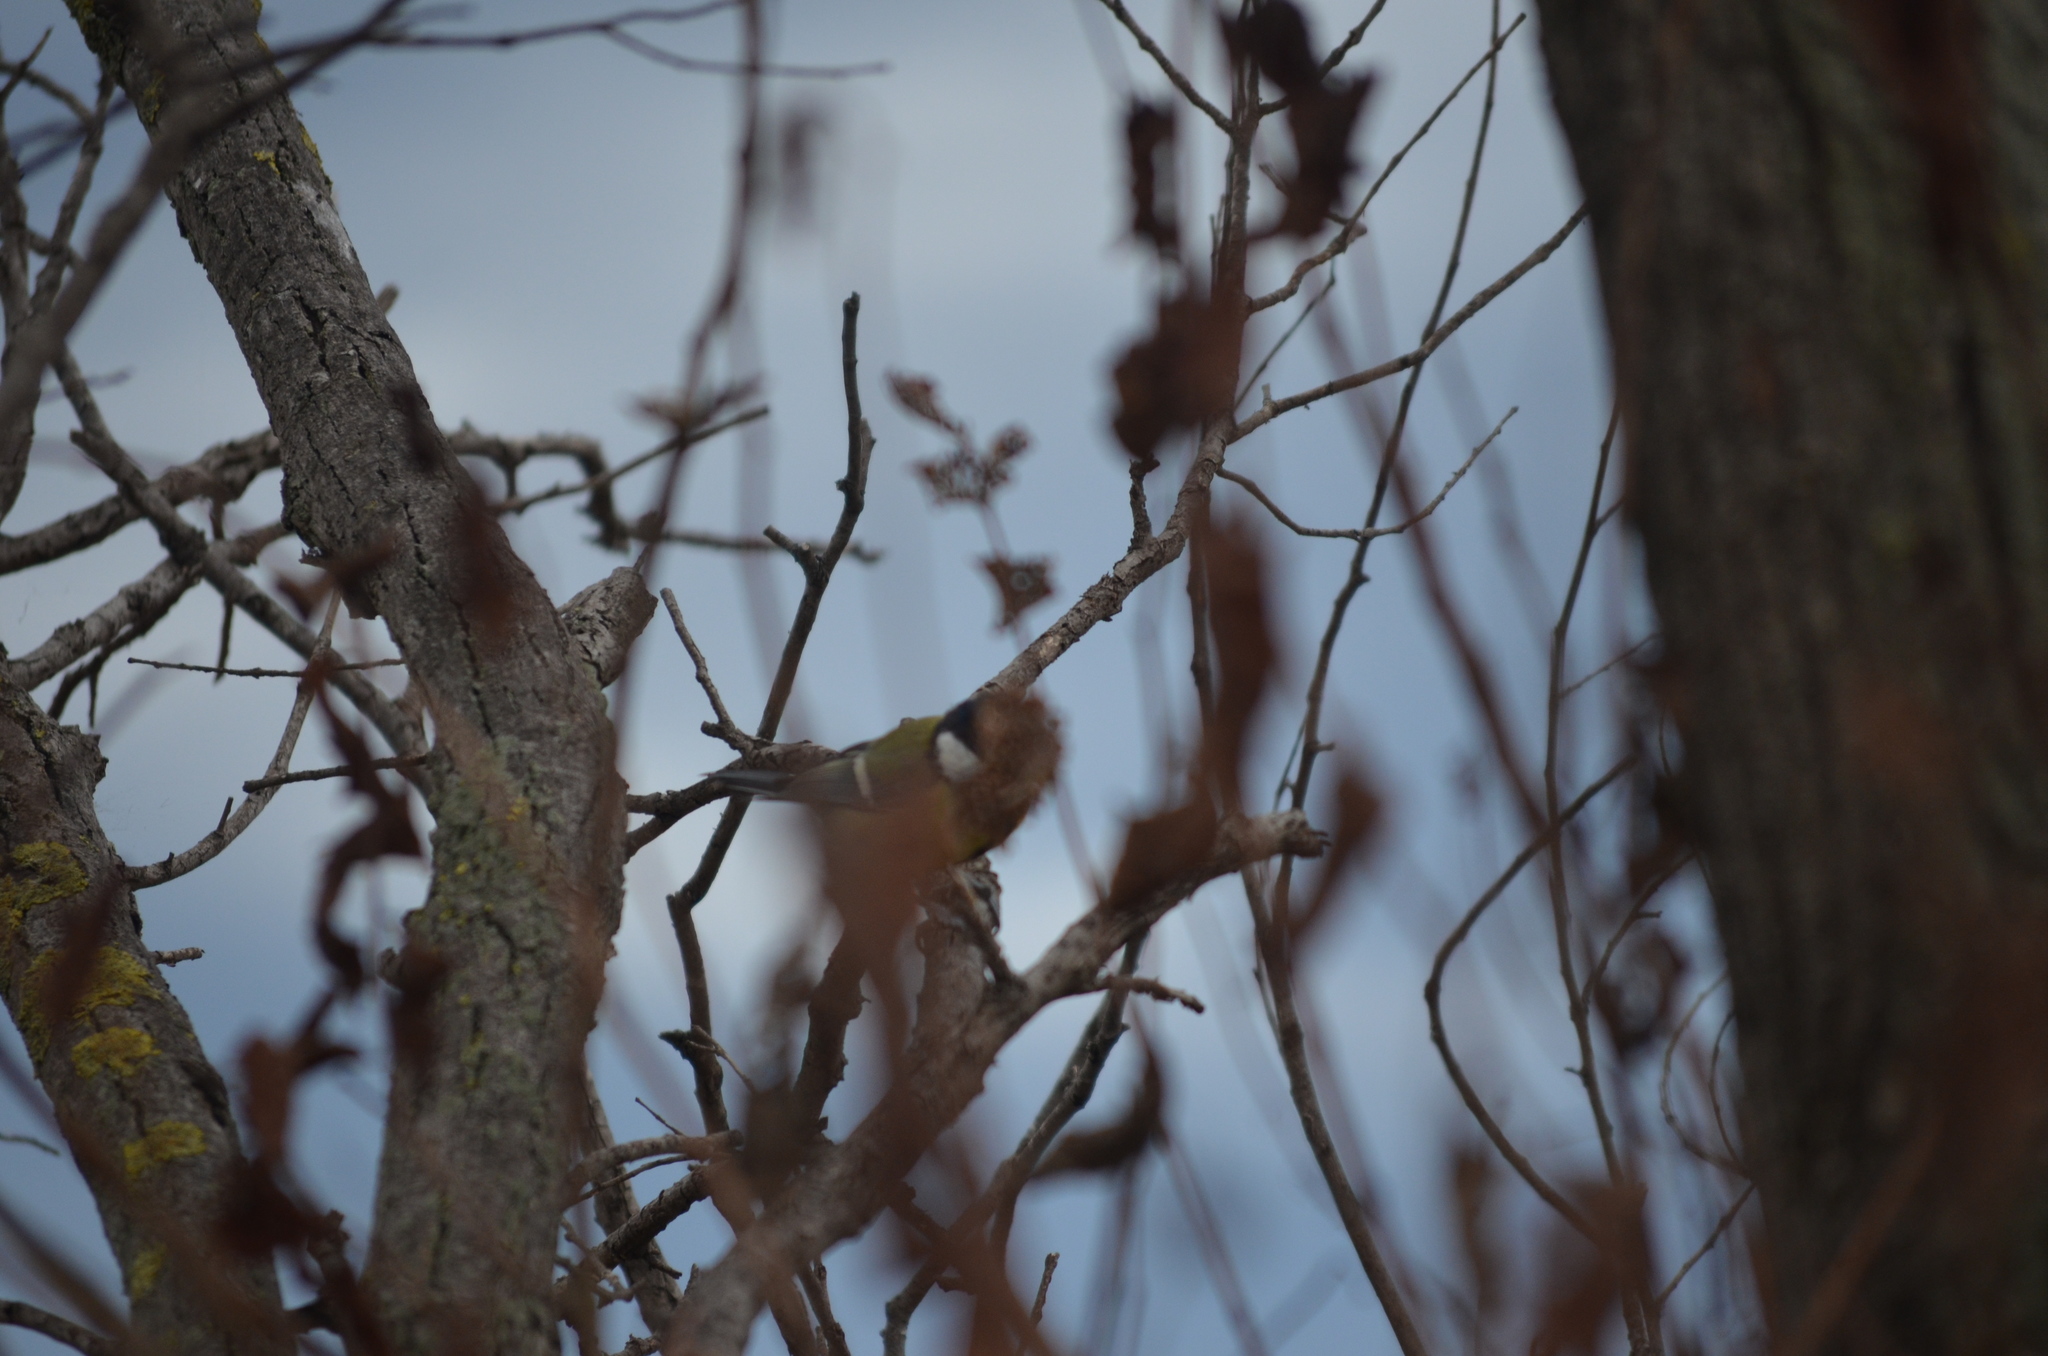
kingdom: Animalia
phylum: Chordata
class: Aves
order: Passeriformes
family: Paridae
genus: Parus
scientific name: Parus major
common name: Great tit
